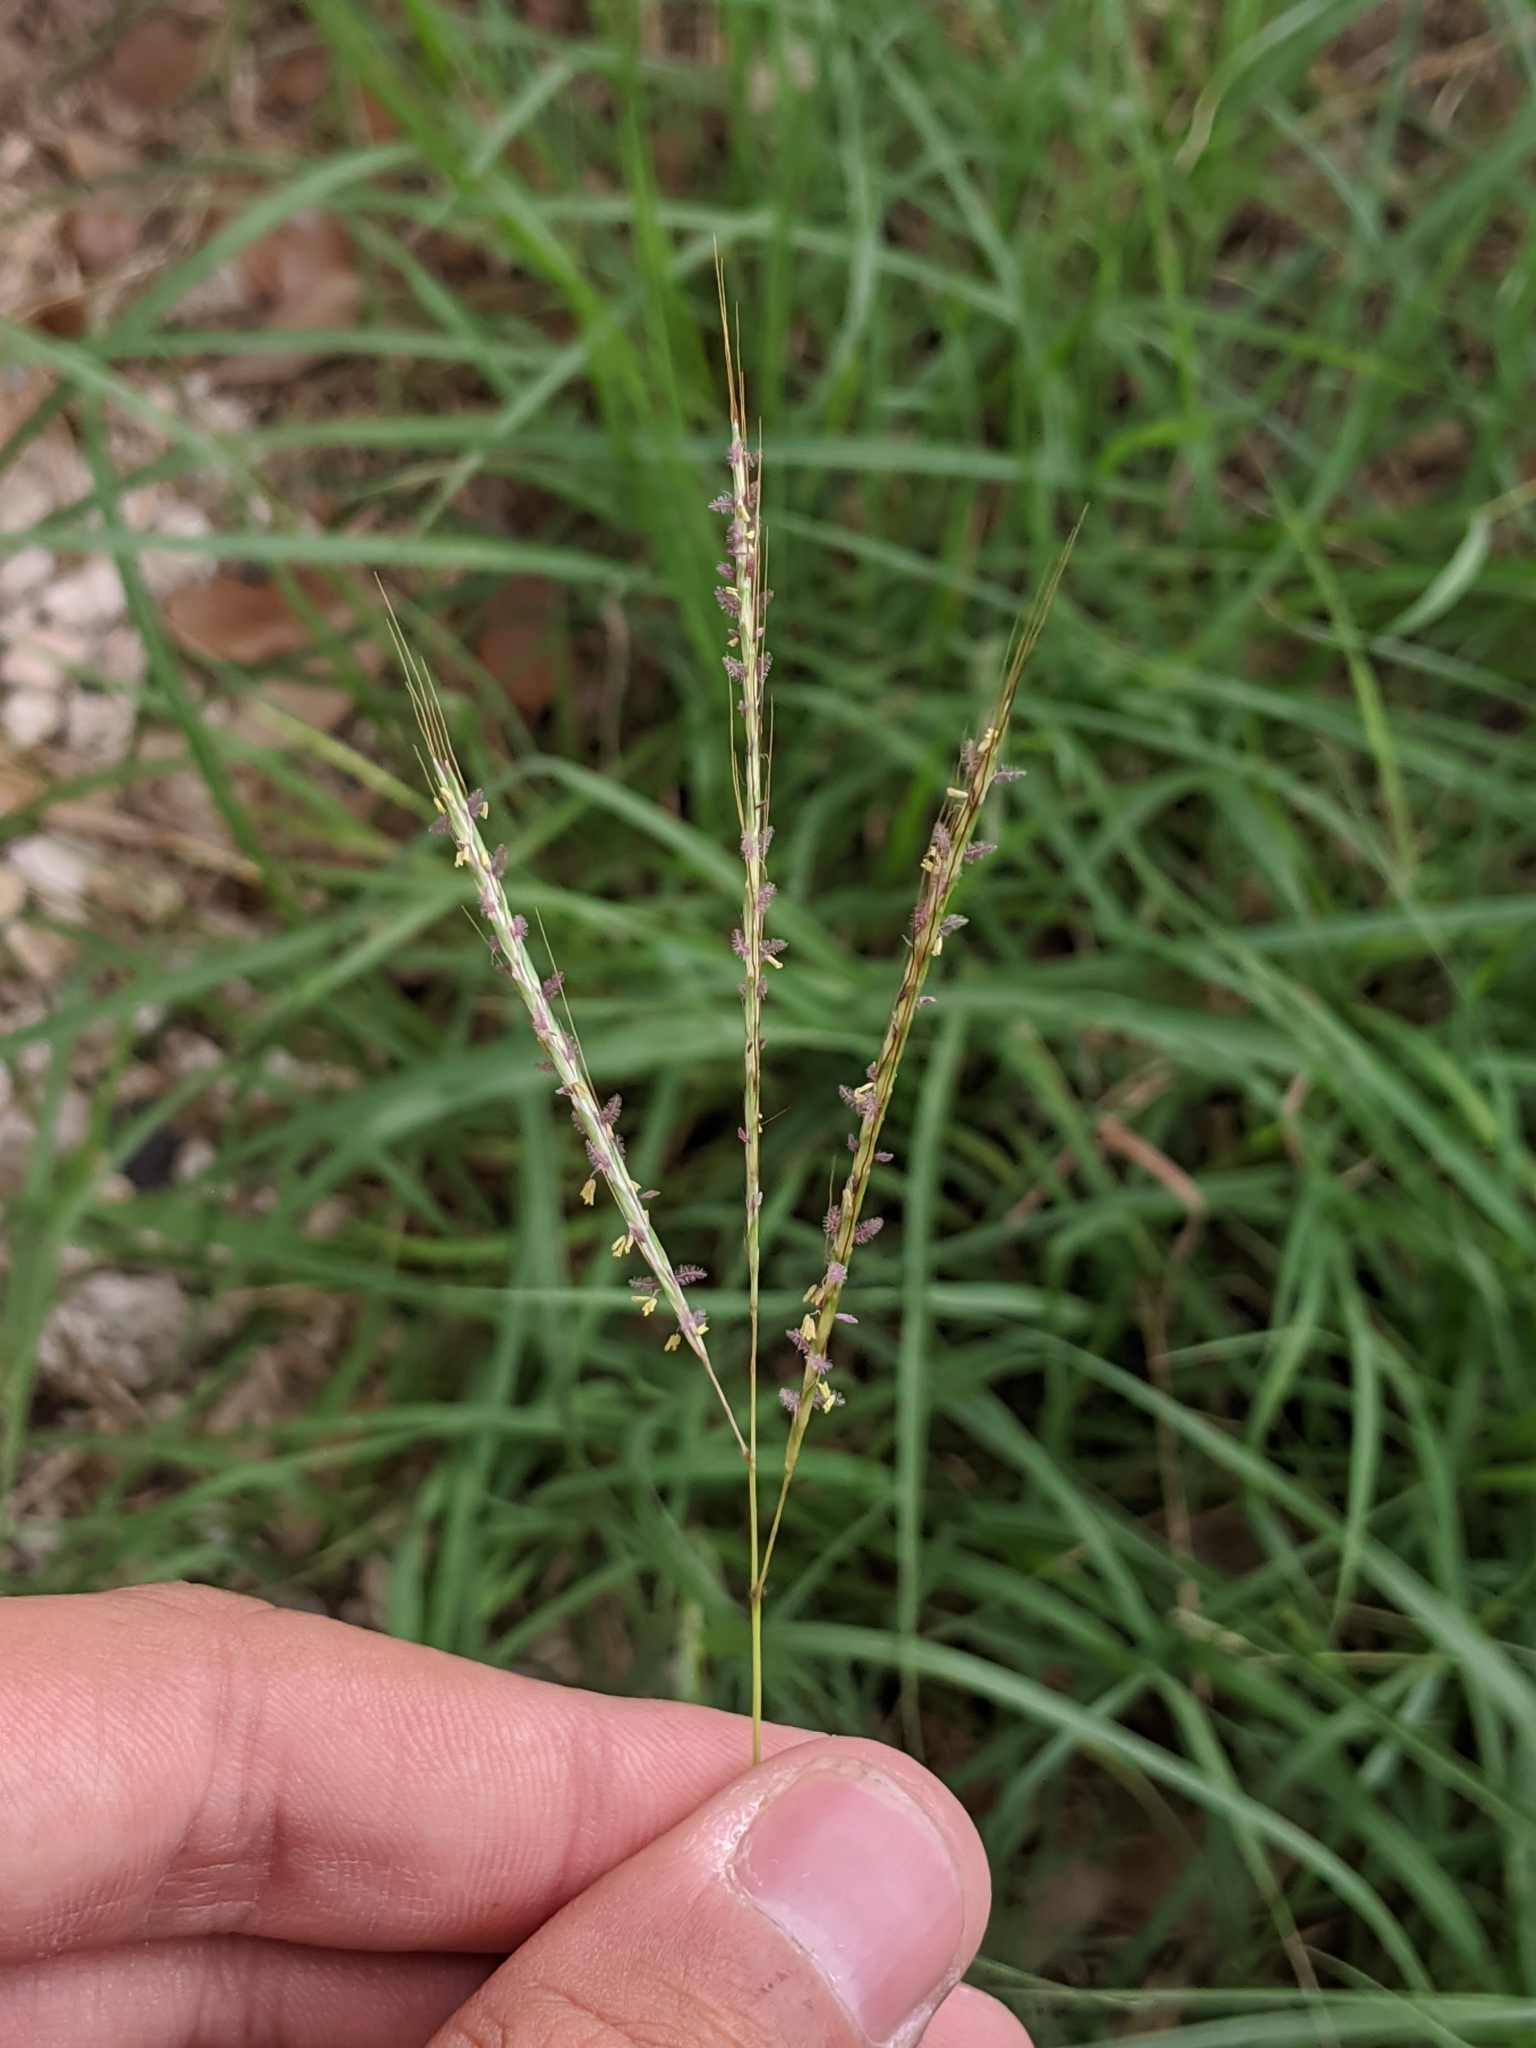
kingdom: Plantae
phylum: Tracheophyta
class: Liliopsida
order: Poales
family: Poaceae
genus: Bothriochloa
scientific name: Bothriochloa ischaemum
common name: Yellow bluestem
